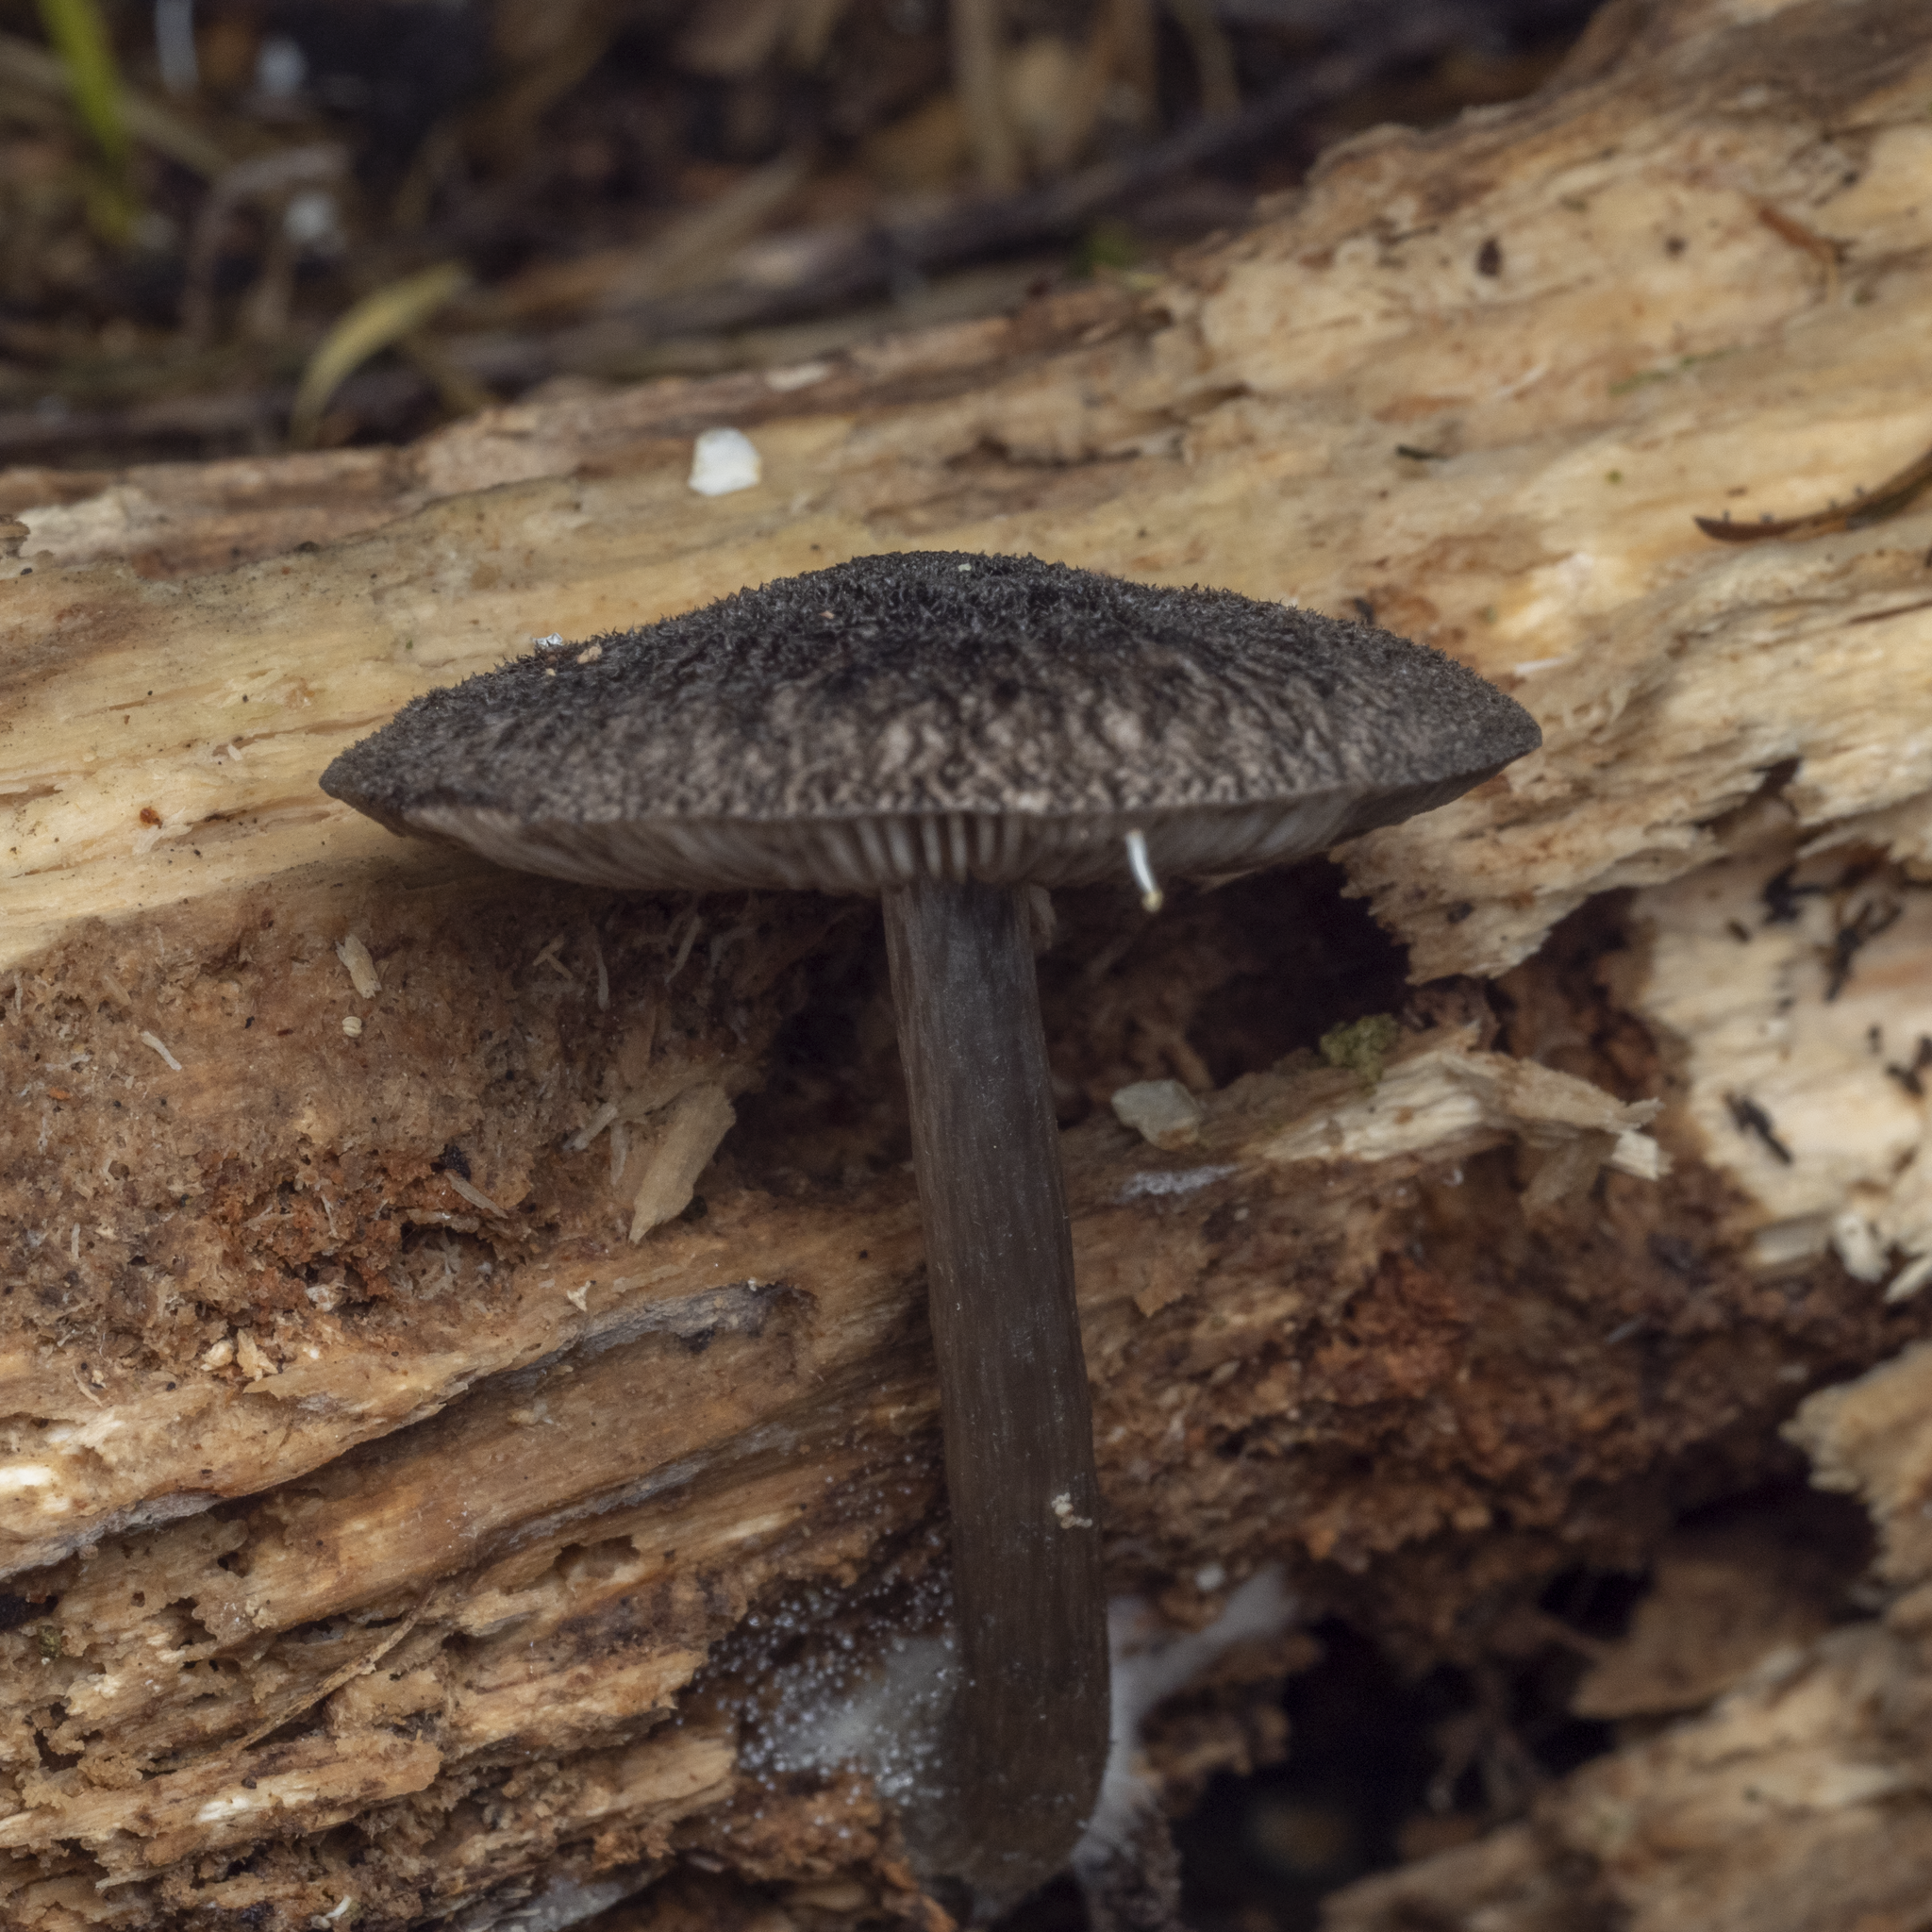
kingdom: Fungi
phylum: Basidiomycota
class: Agaricomycetes
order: Agaricales
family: Pluteaceae
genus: Pluteus
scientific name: Pluteus velutinornatus
